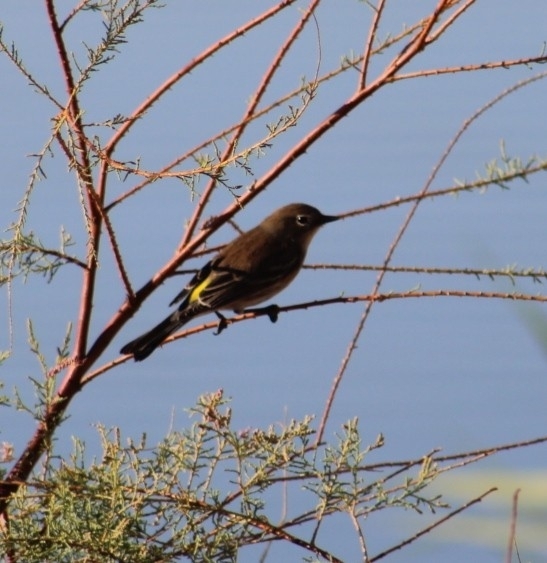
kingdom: Animalia
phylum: Chordata
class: Aves
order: Passeriformes
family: Parulidae
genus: Setophaga
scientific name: Setophaga coronata
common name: Myrtle warbler
